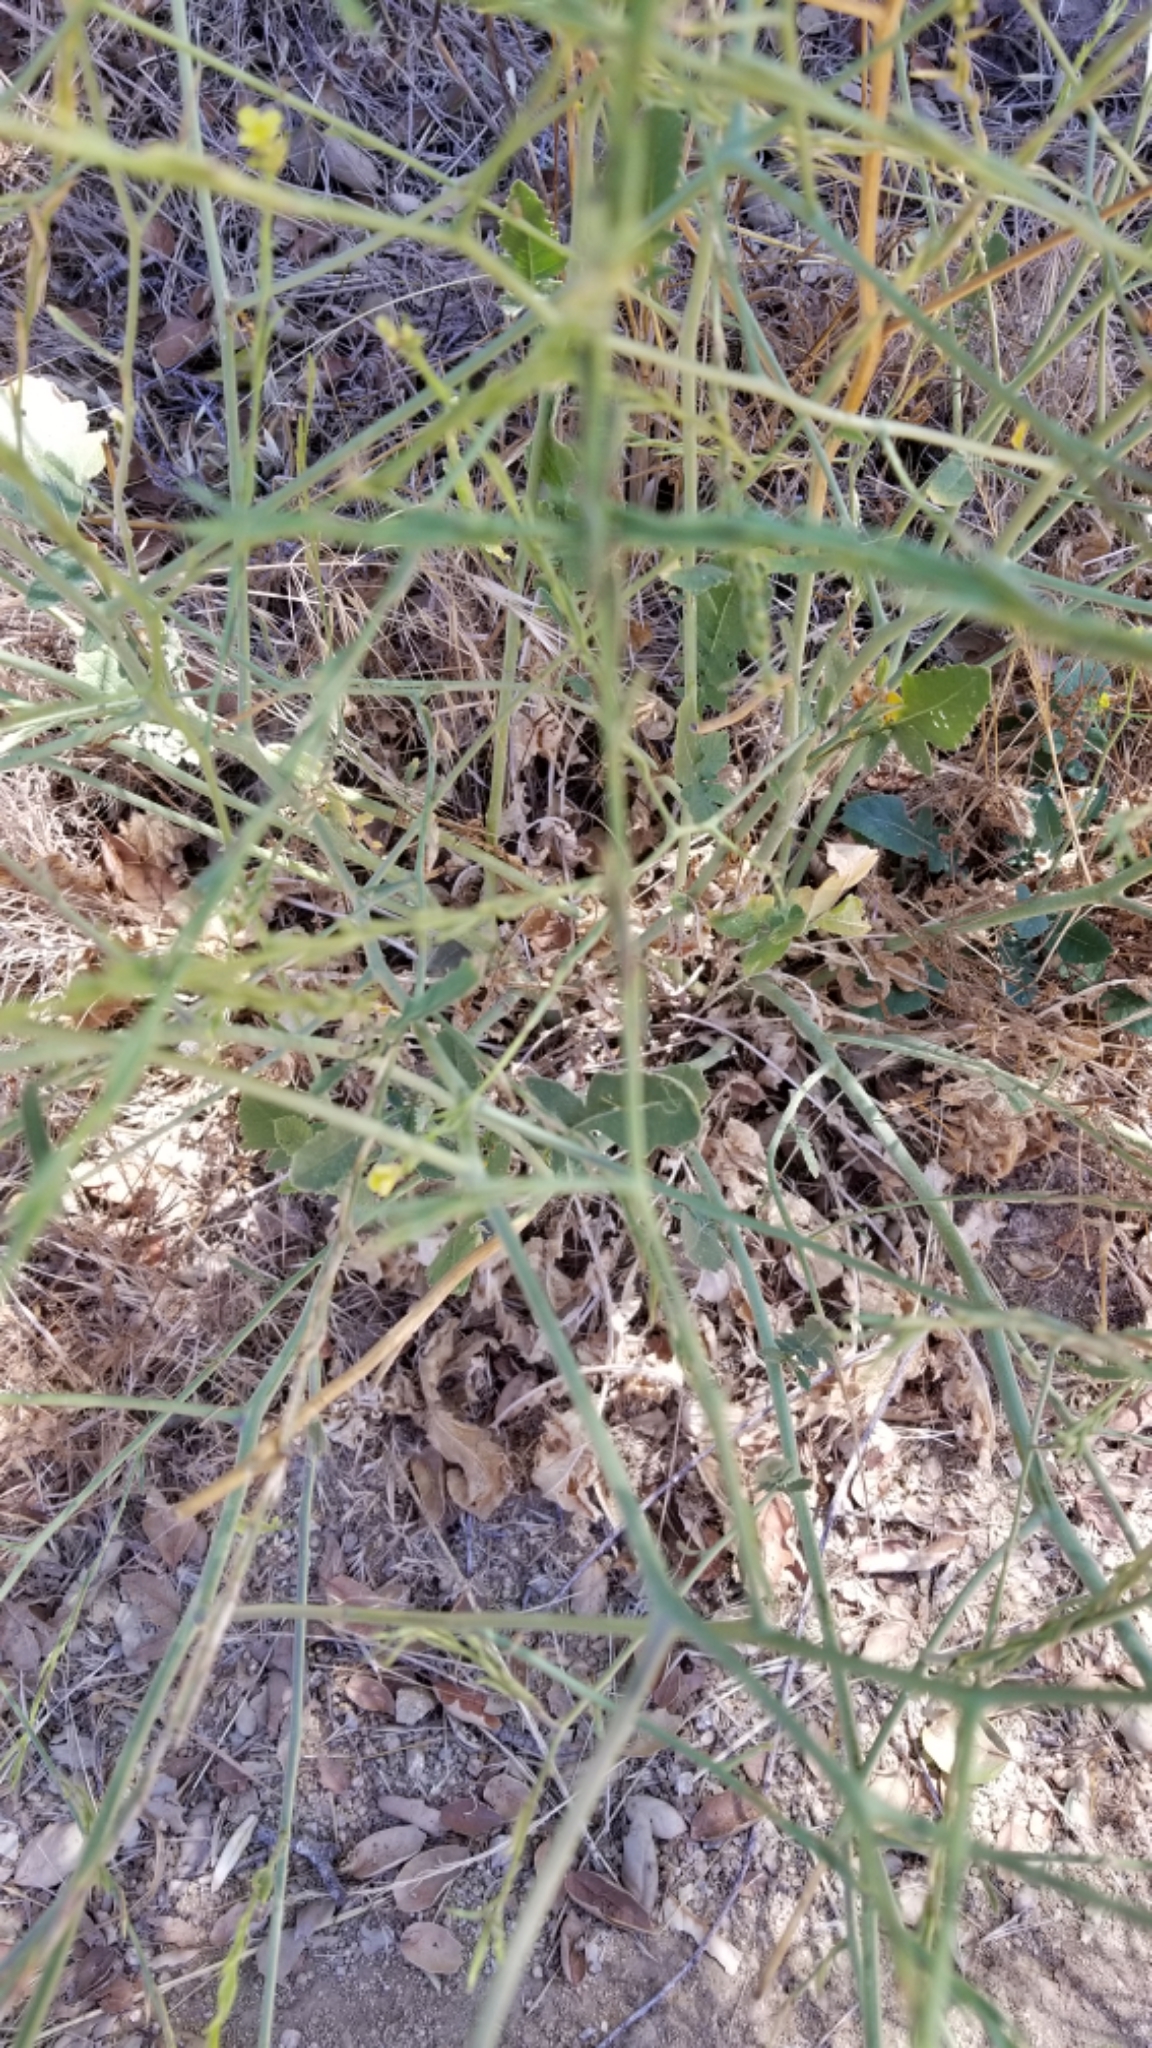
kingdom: Plantae
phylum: Tracheophyta
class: Magnoliopsida
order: Brassicales
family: Brassicaceae
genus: Hirschfeldia
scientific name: Hirschfeldia incana
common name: Hoary mustard
